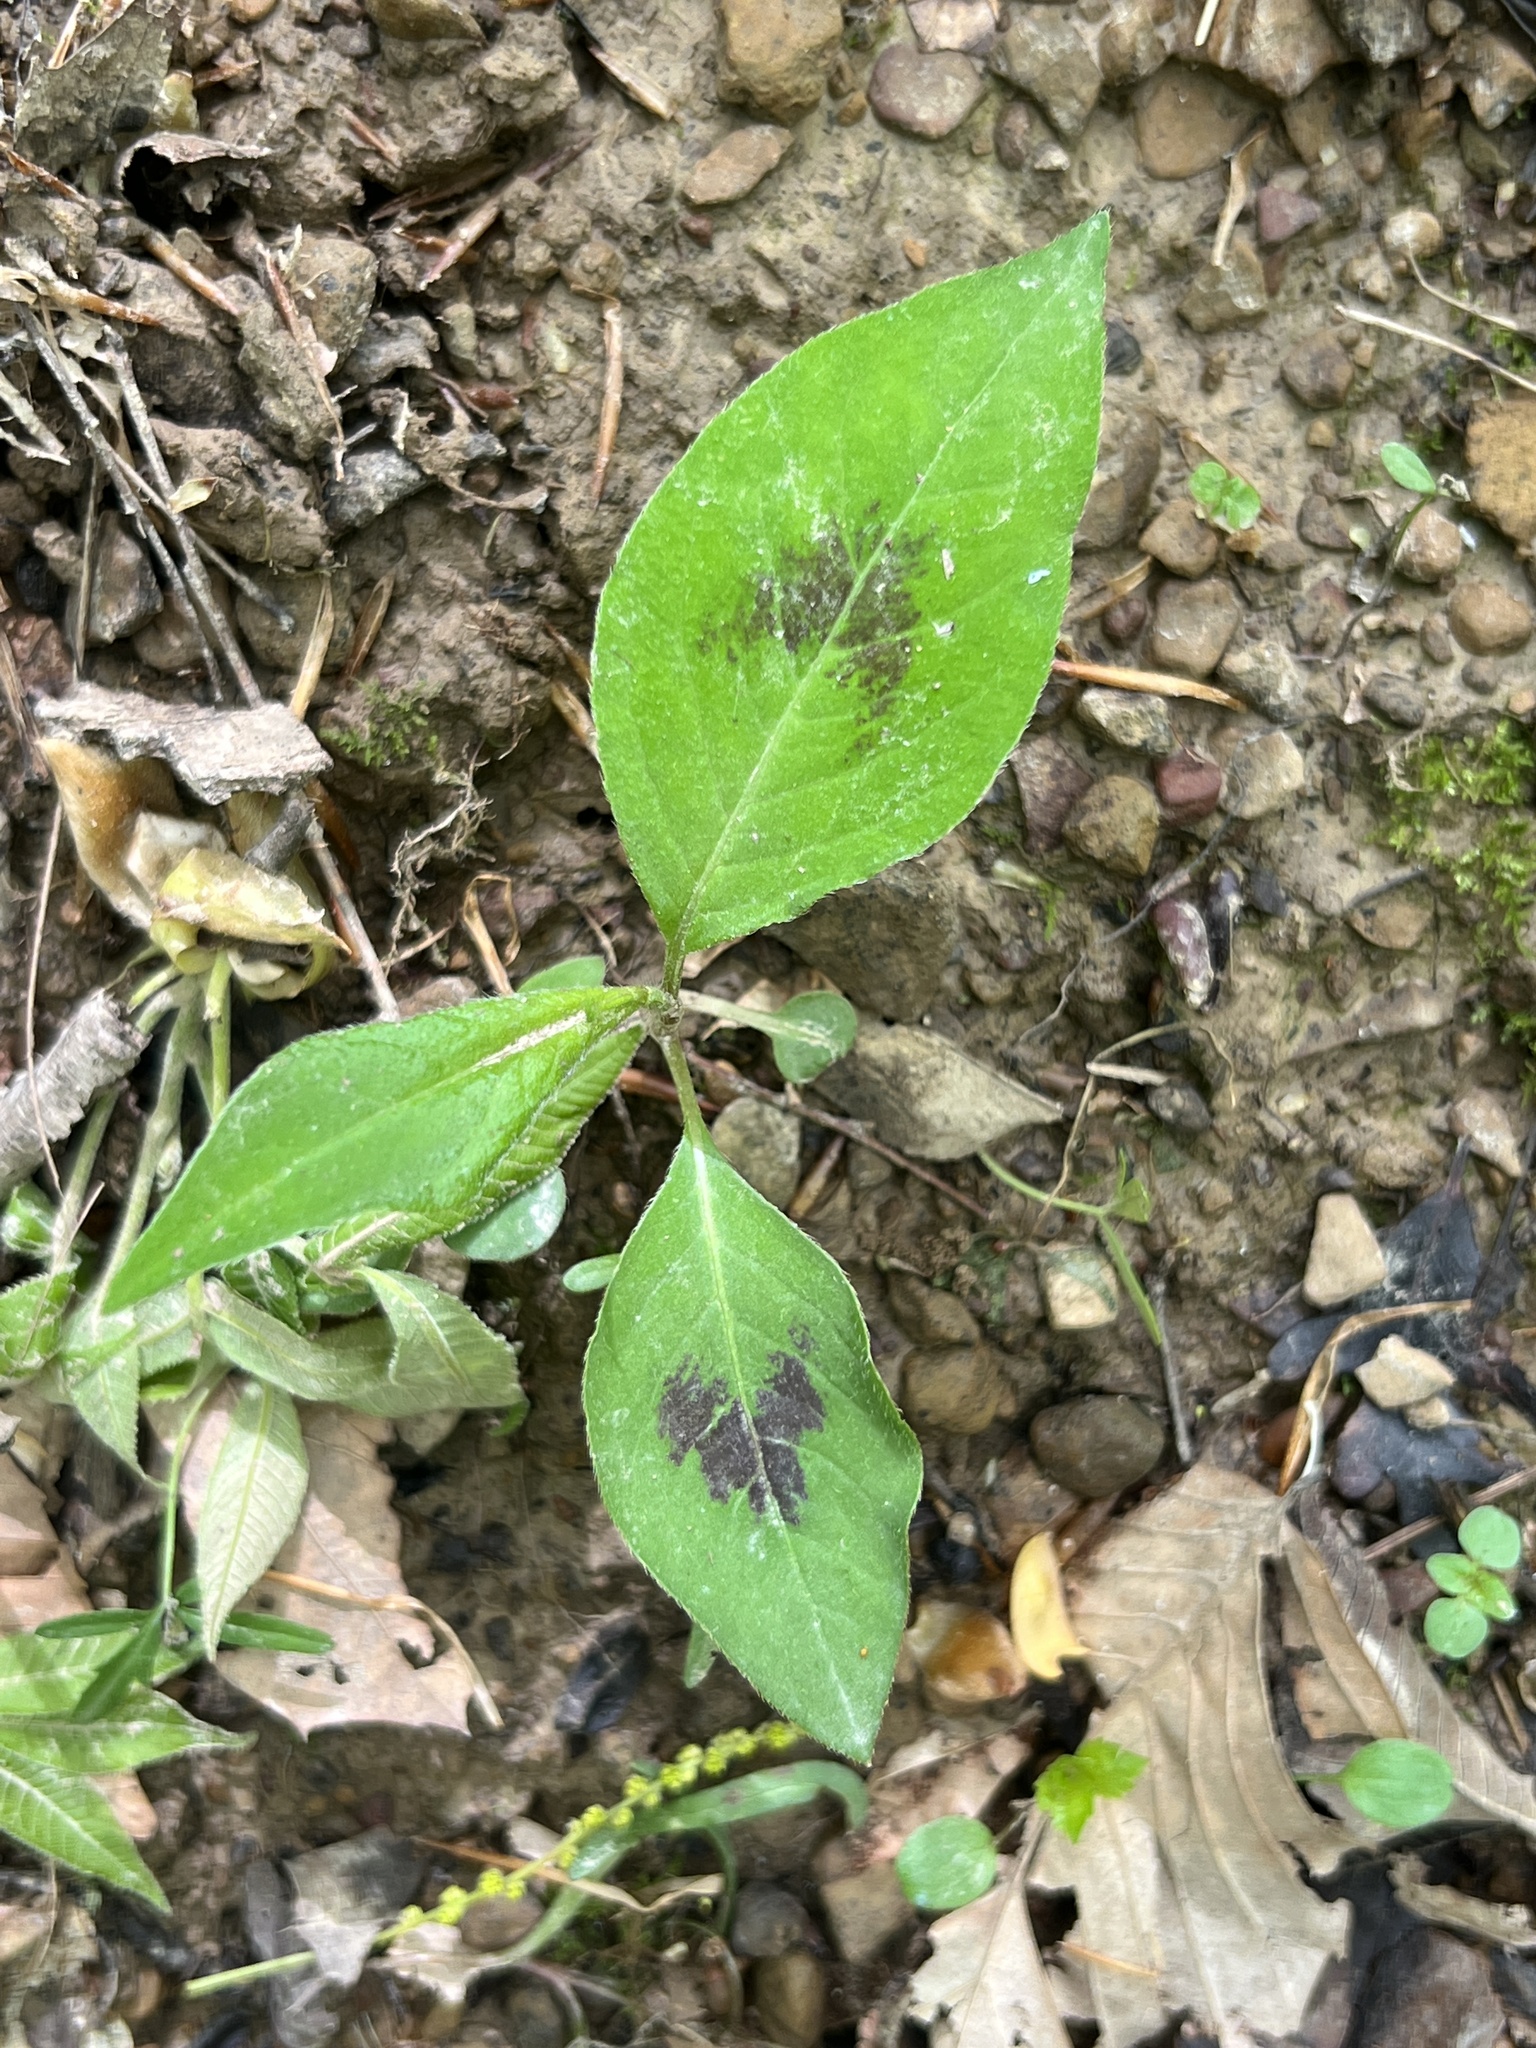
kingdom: Plantae
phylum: Tracheophyta
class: Magnoliopsida
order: Caryophyllales
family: Polygonaceae
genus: Persicaria
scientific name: Persicaria virginiana
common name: Jumpseed
